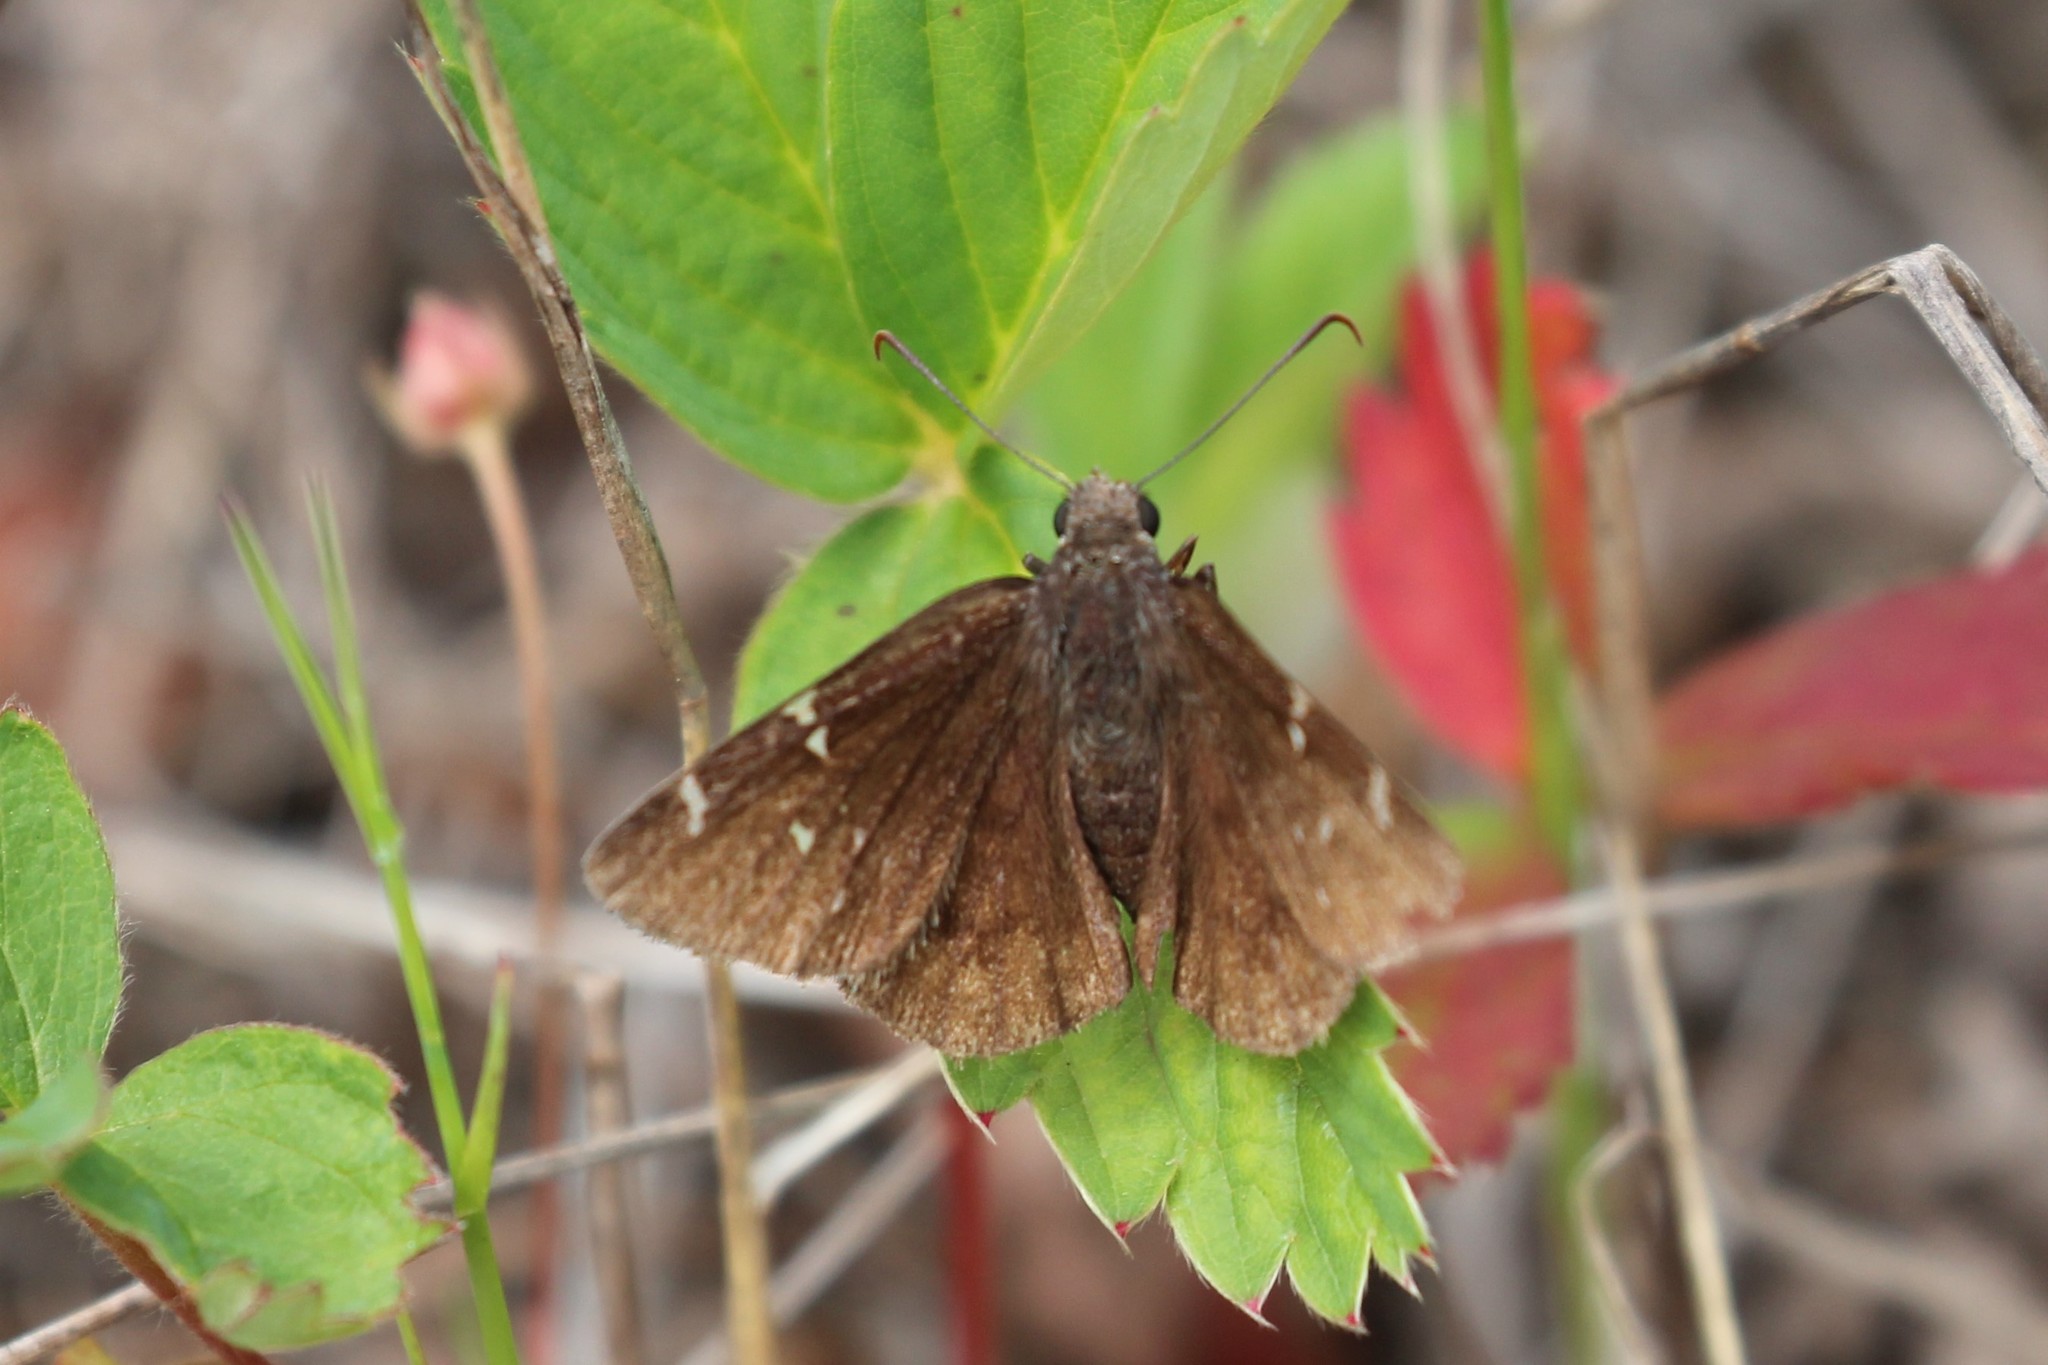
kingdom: Animalia
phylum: Arthropoda
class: Insecta
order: Lepidoptera
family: Hesperiidae
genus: Thorybes
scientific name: Thorybes pylades
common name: Northern cloudywing
